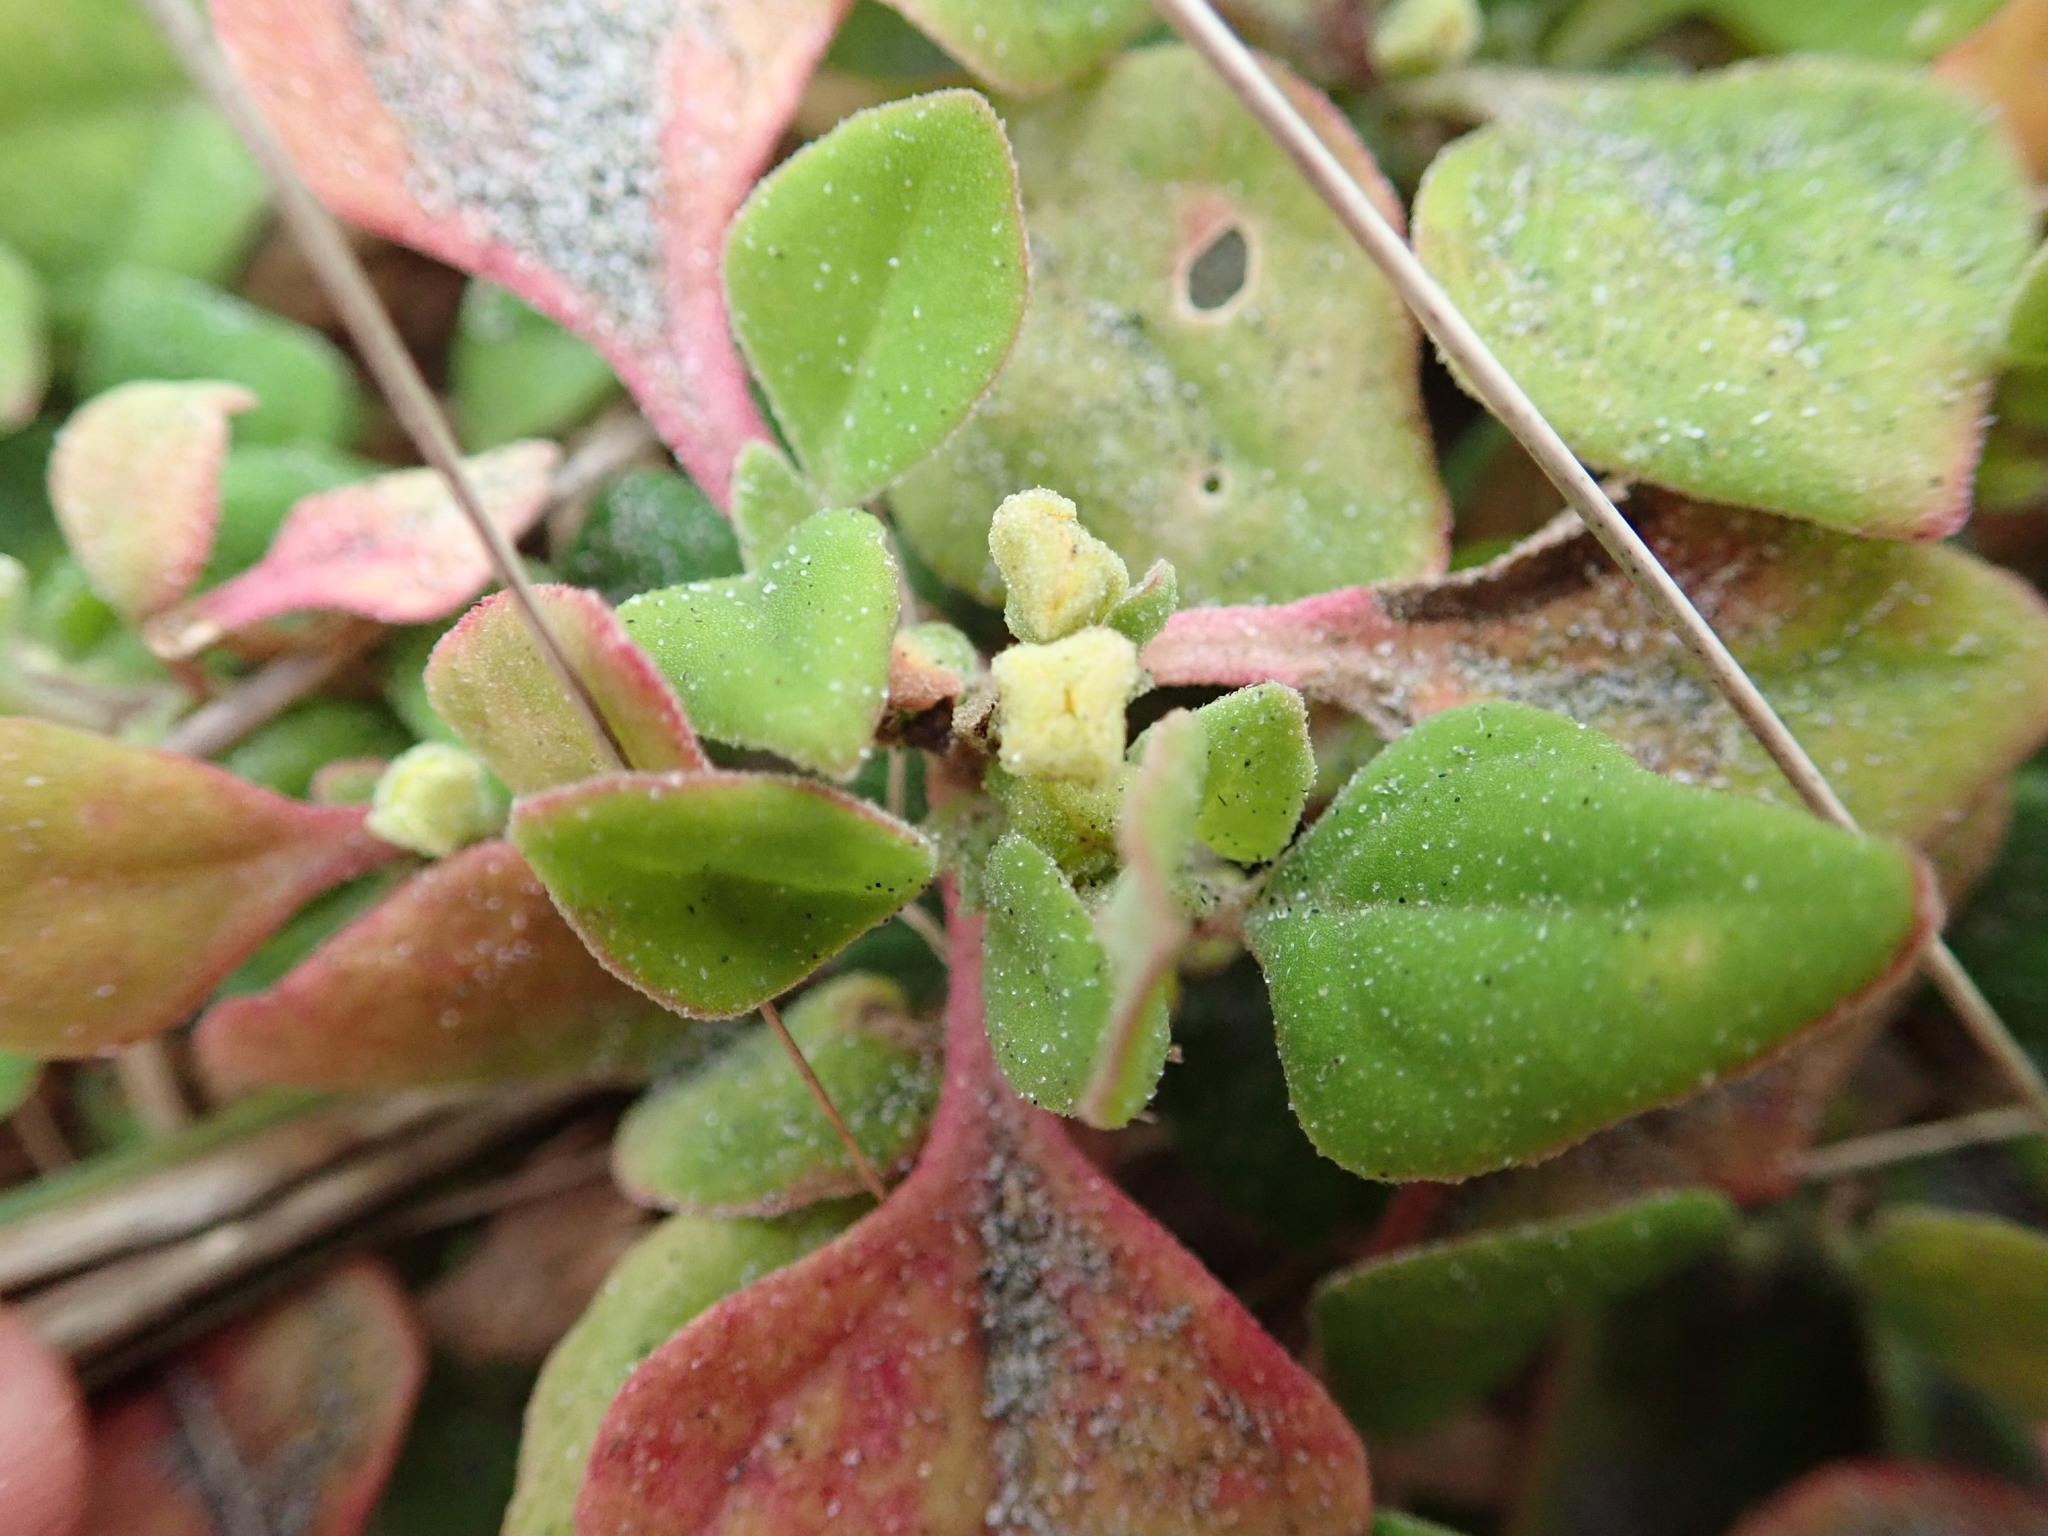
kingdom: Plantae
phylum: Tracheophyta
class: Magnoliopsida
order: Caryophyllales
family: Aizoaceae
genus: Tetragonia
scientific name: Tetragonia implexicoma
